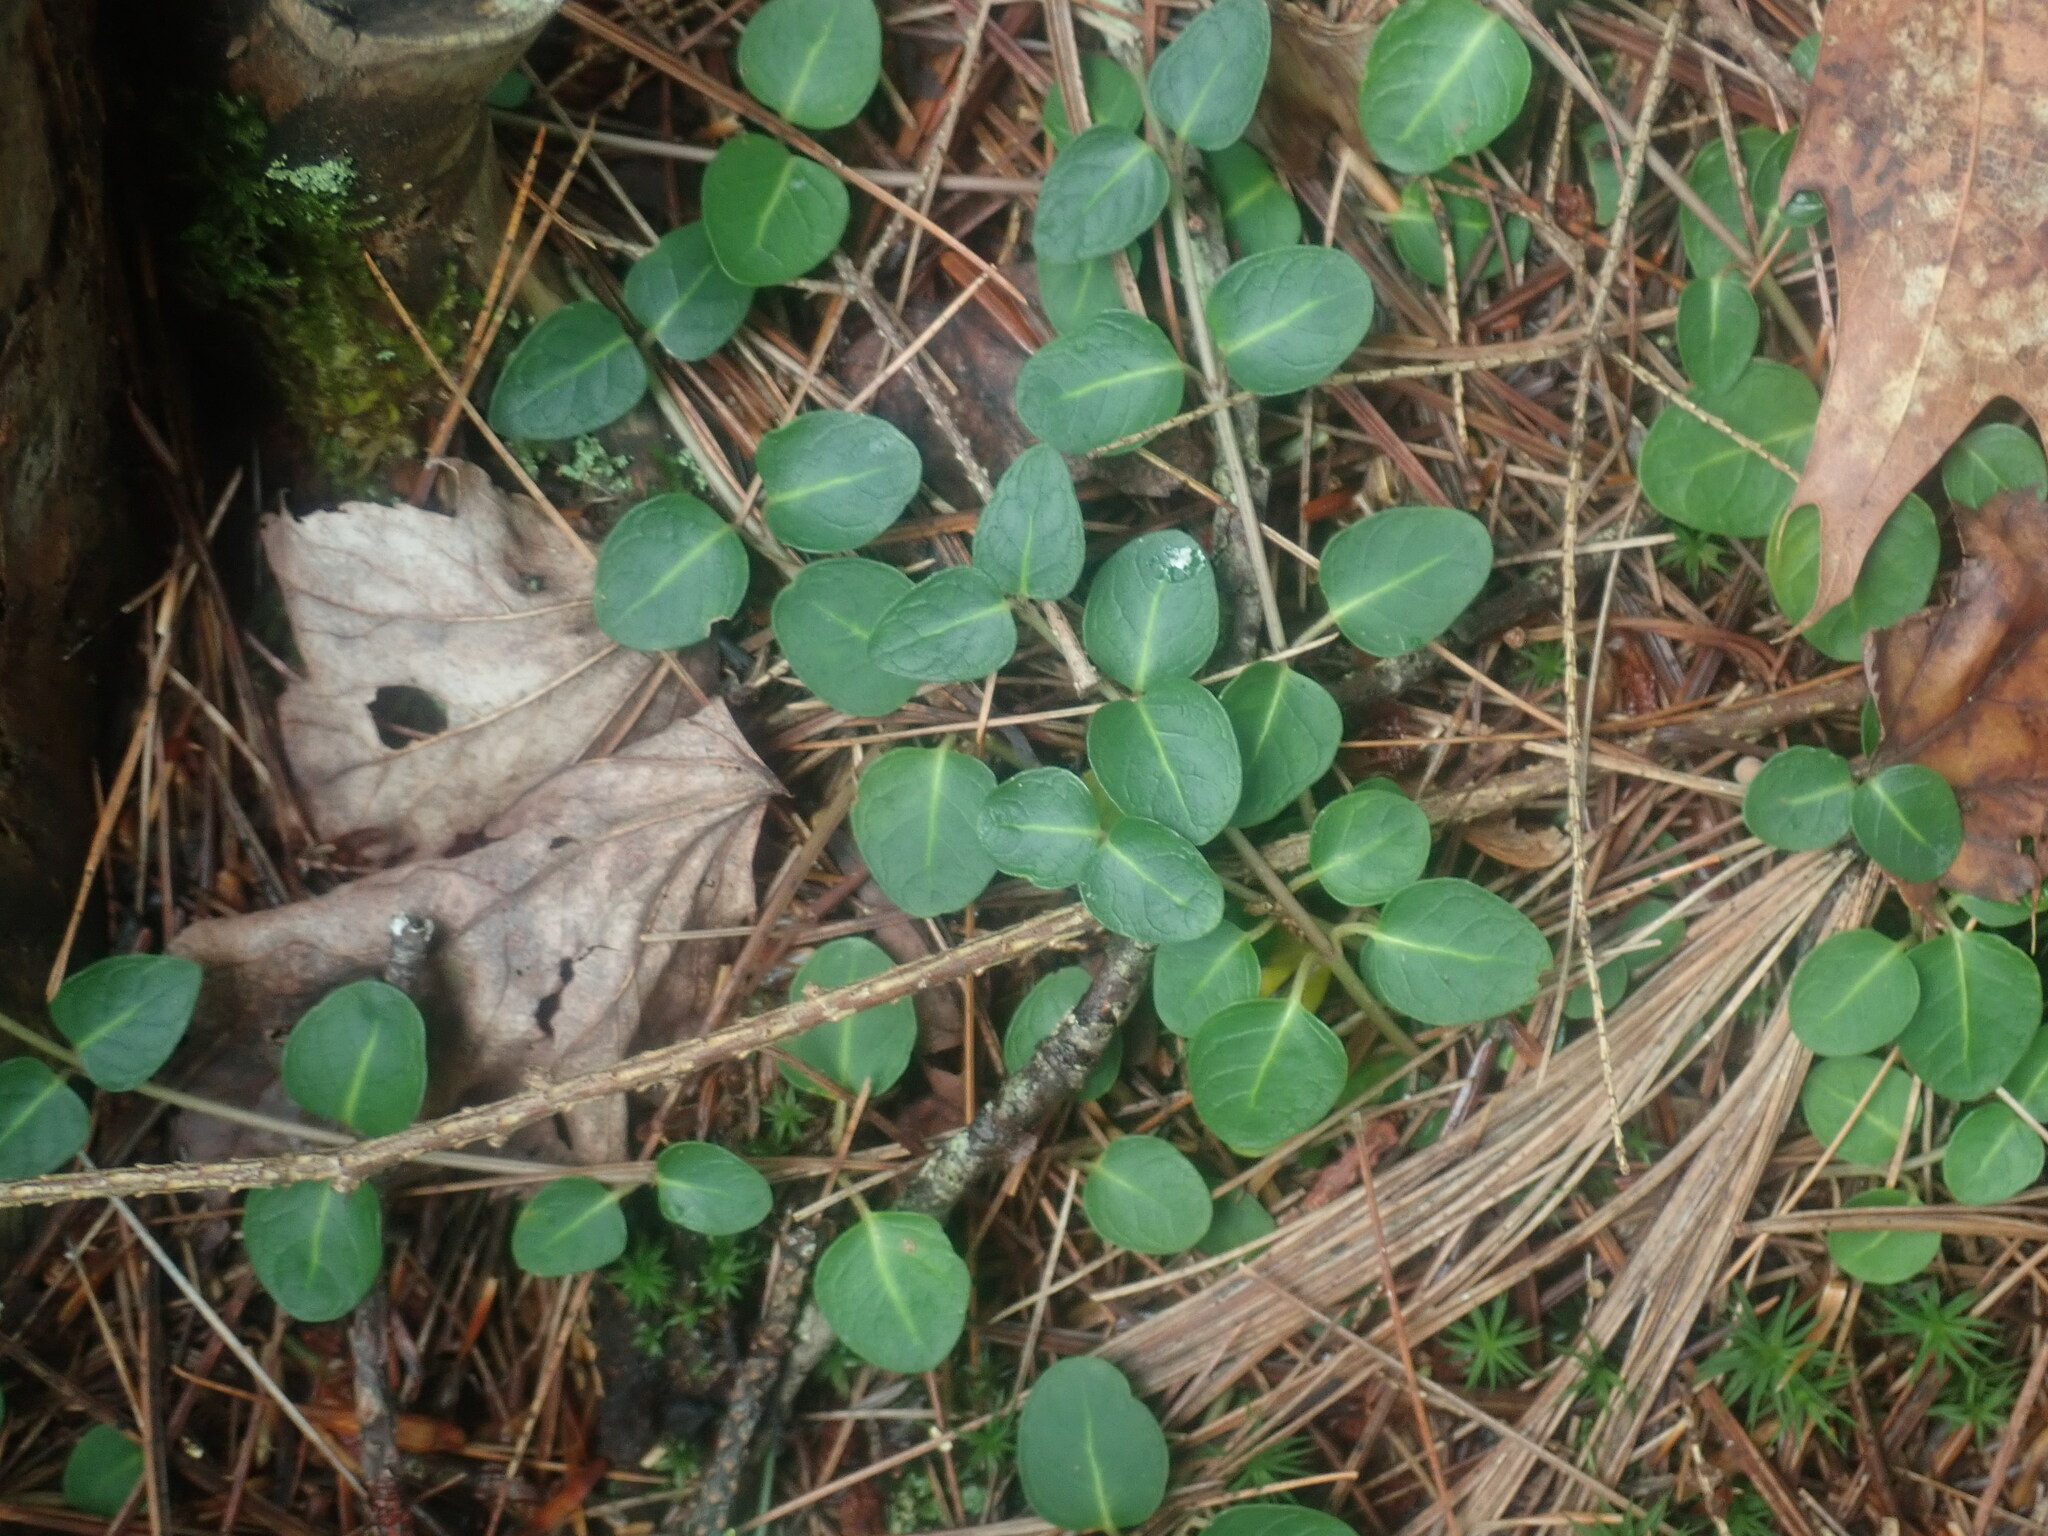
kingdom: Plantae
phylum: Tracheophyta
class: Magnoliopsida
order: Gentianales
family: Rubiaceae
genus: Mitchella
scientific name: Mitchella repens
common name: Partridge-berry
